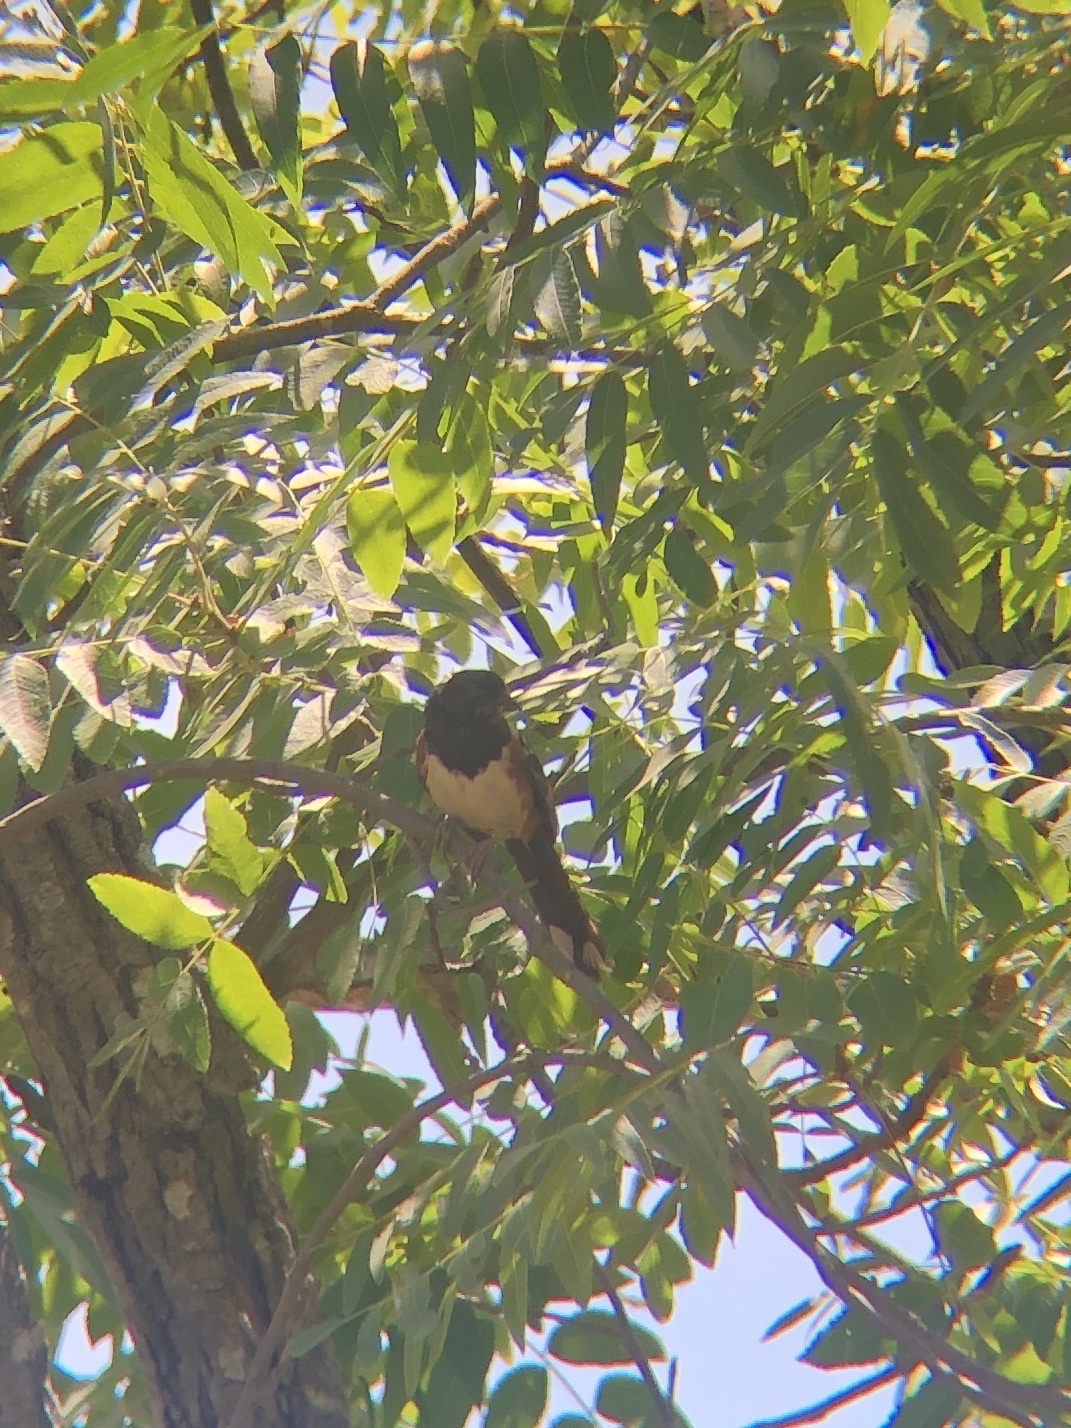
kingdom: Animalia
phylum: Chordata
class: Aves
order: Passeriformes
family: Passerellidae
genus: Pipilo
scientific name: Pipilo maculatus
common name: Spotted towhee
